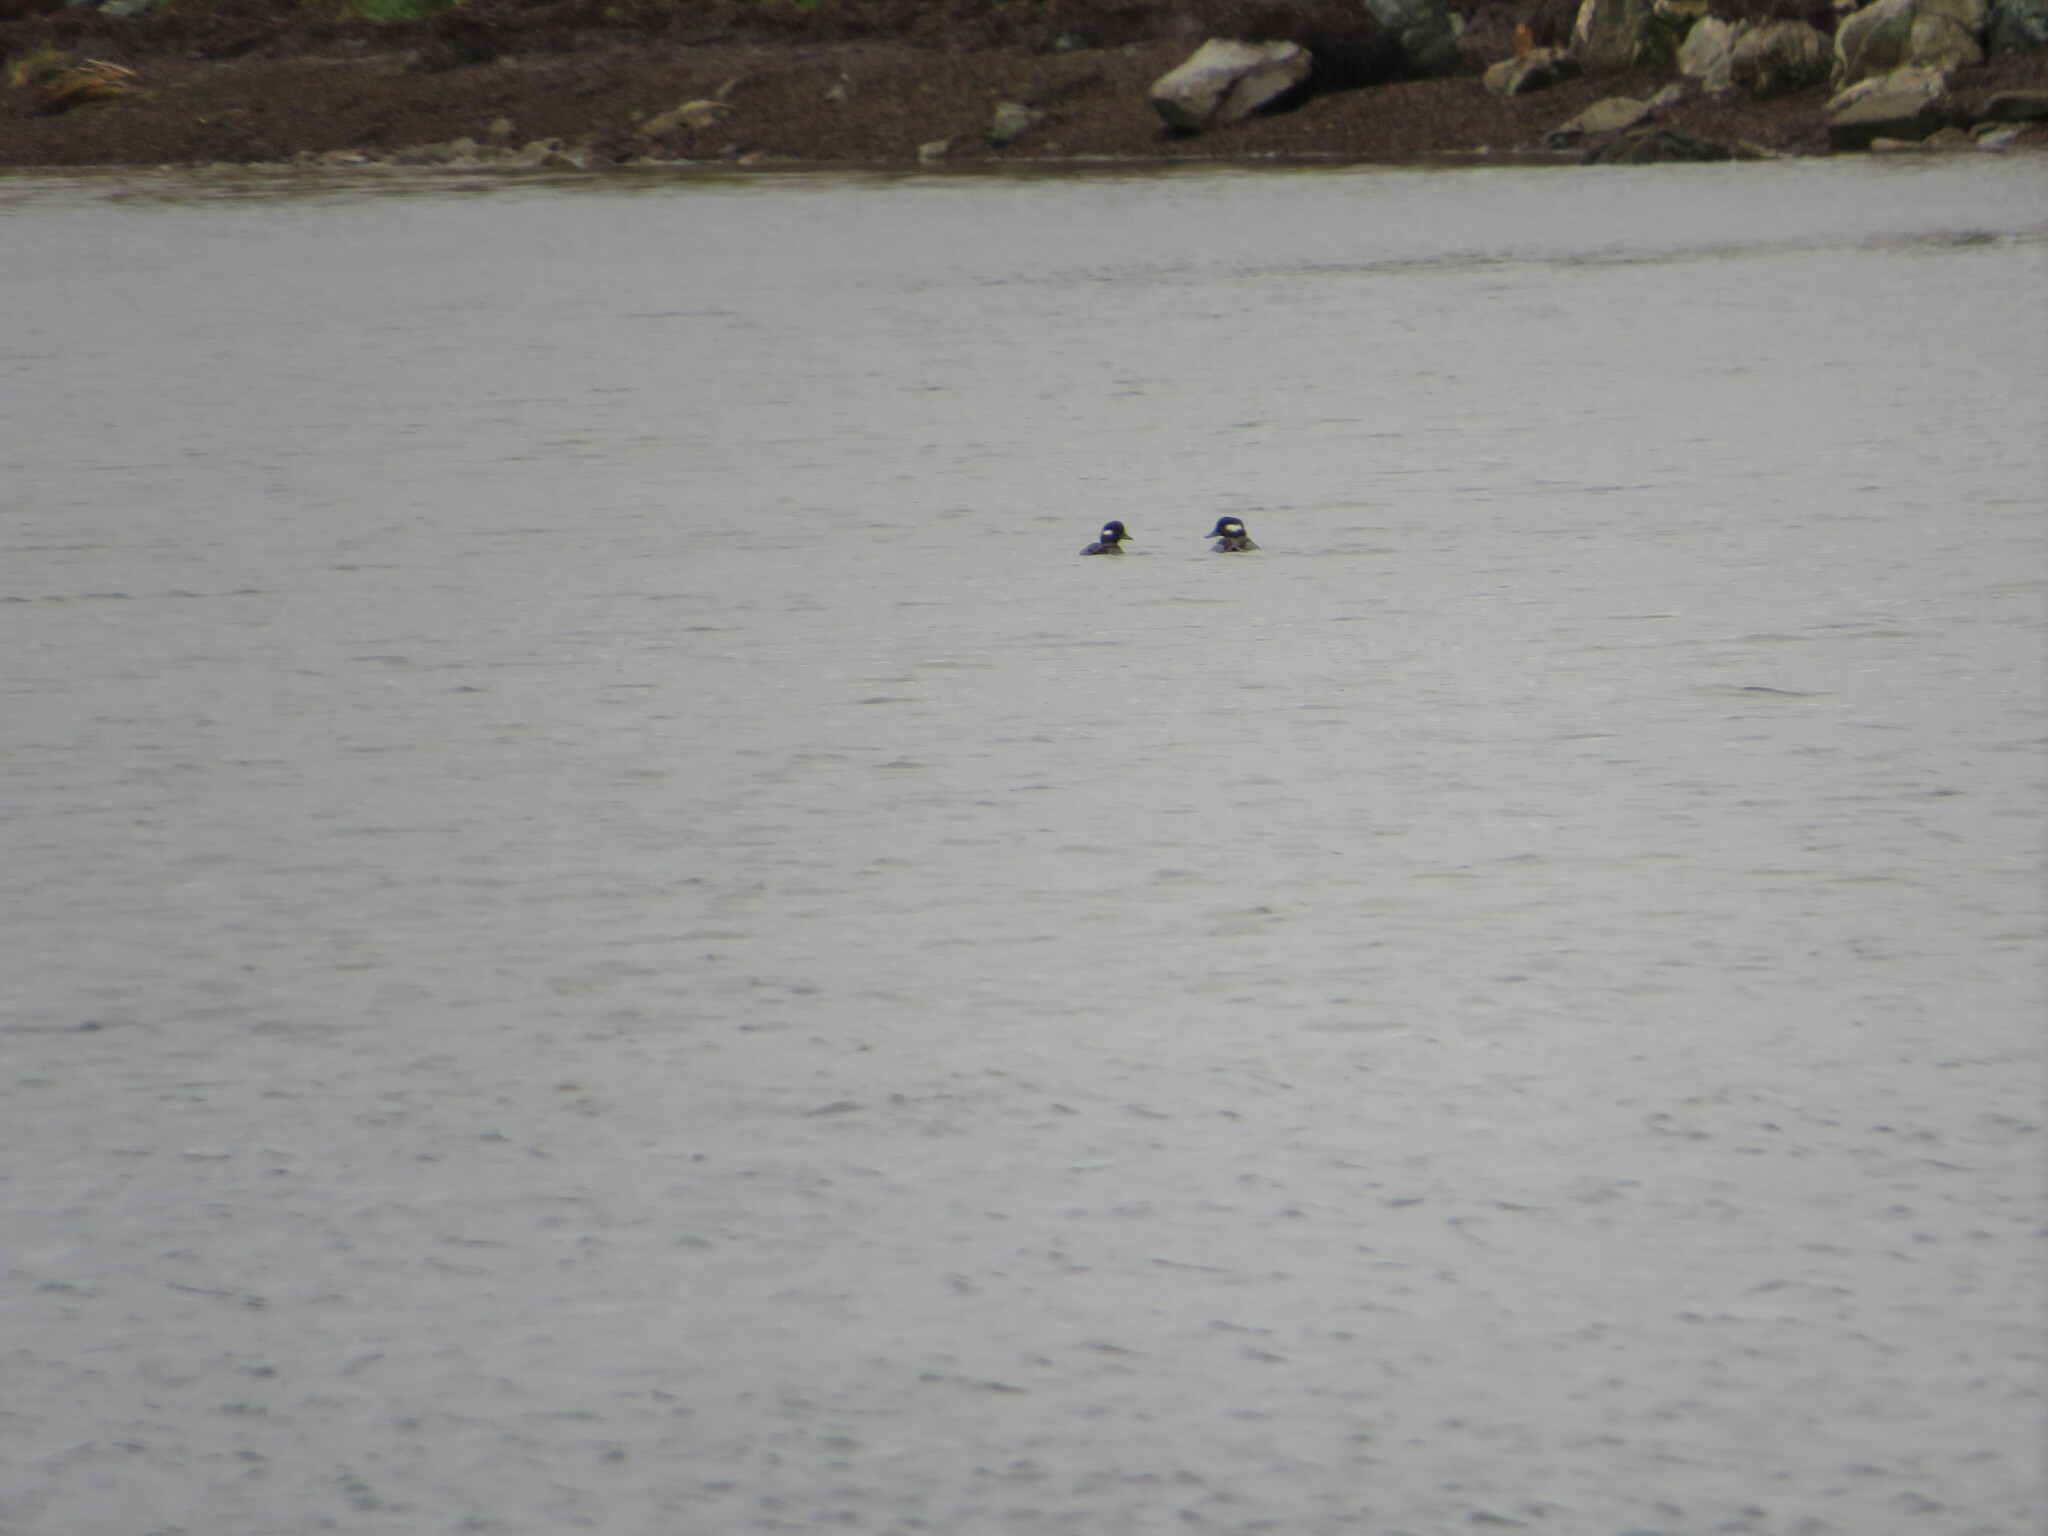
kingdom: Animalia
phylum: Chordata
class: Aves
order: Anseriformes
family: Anatidae
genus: Bucephala
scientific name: Bucephala albeola
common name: Bufflehead
